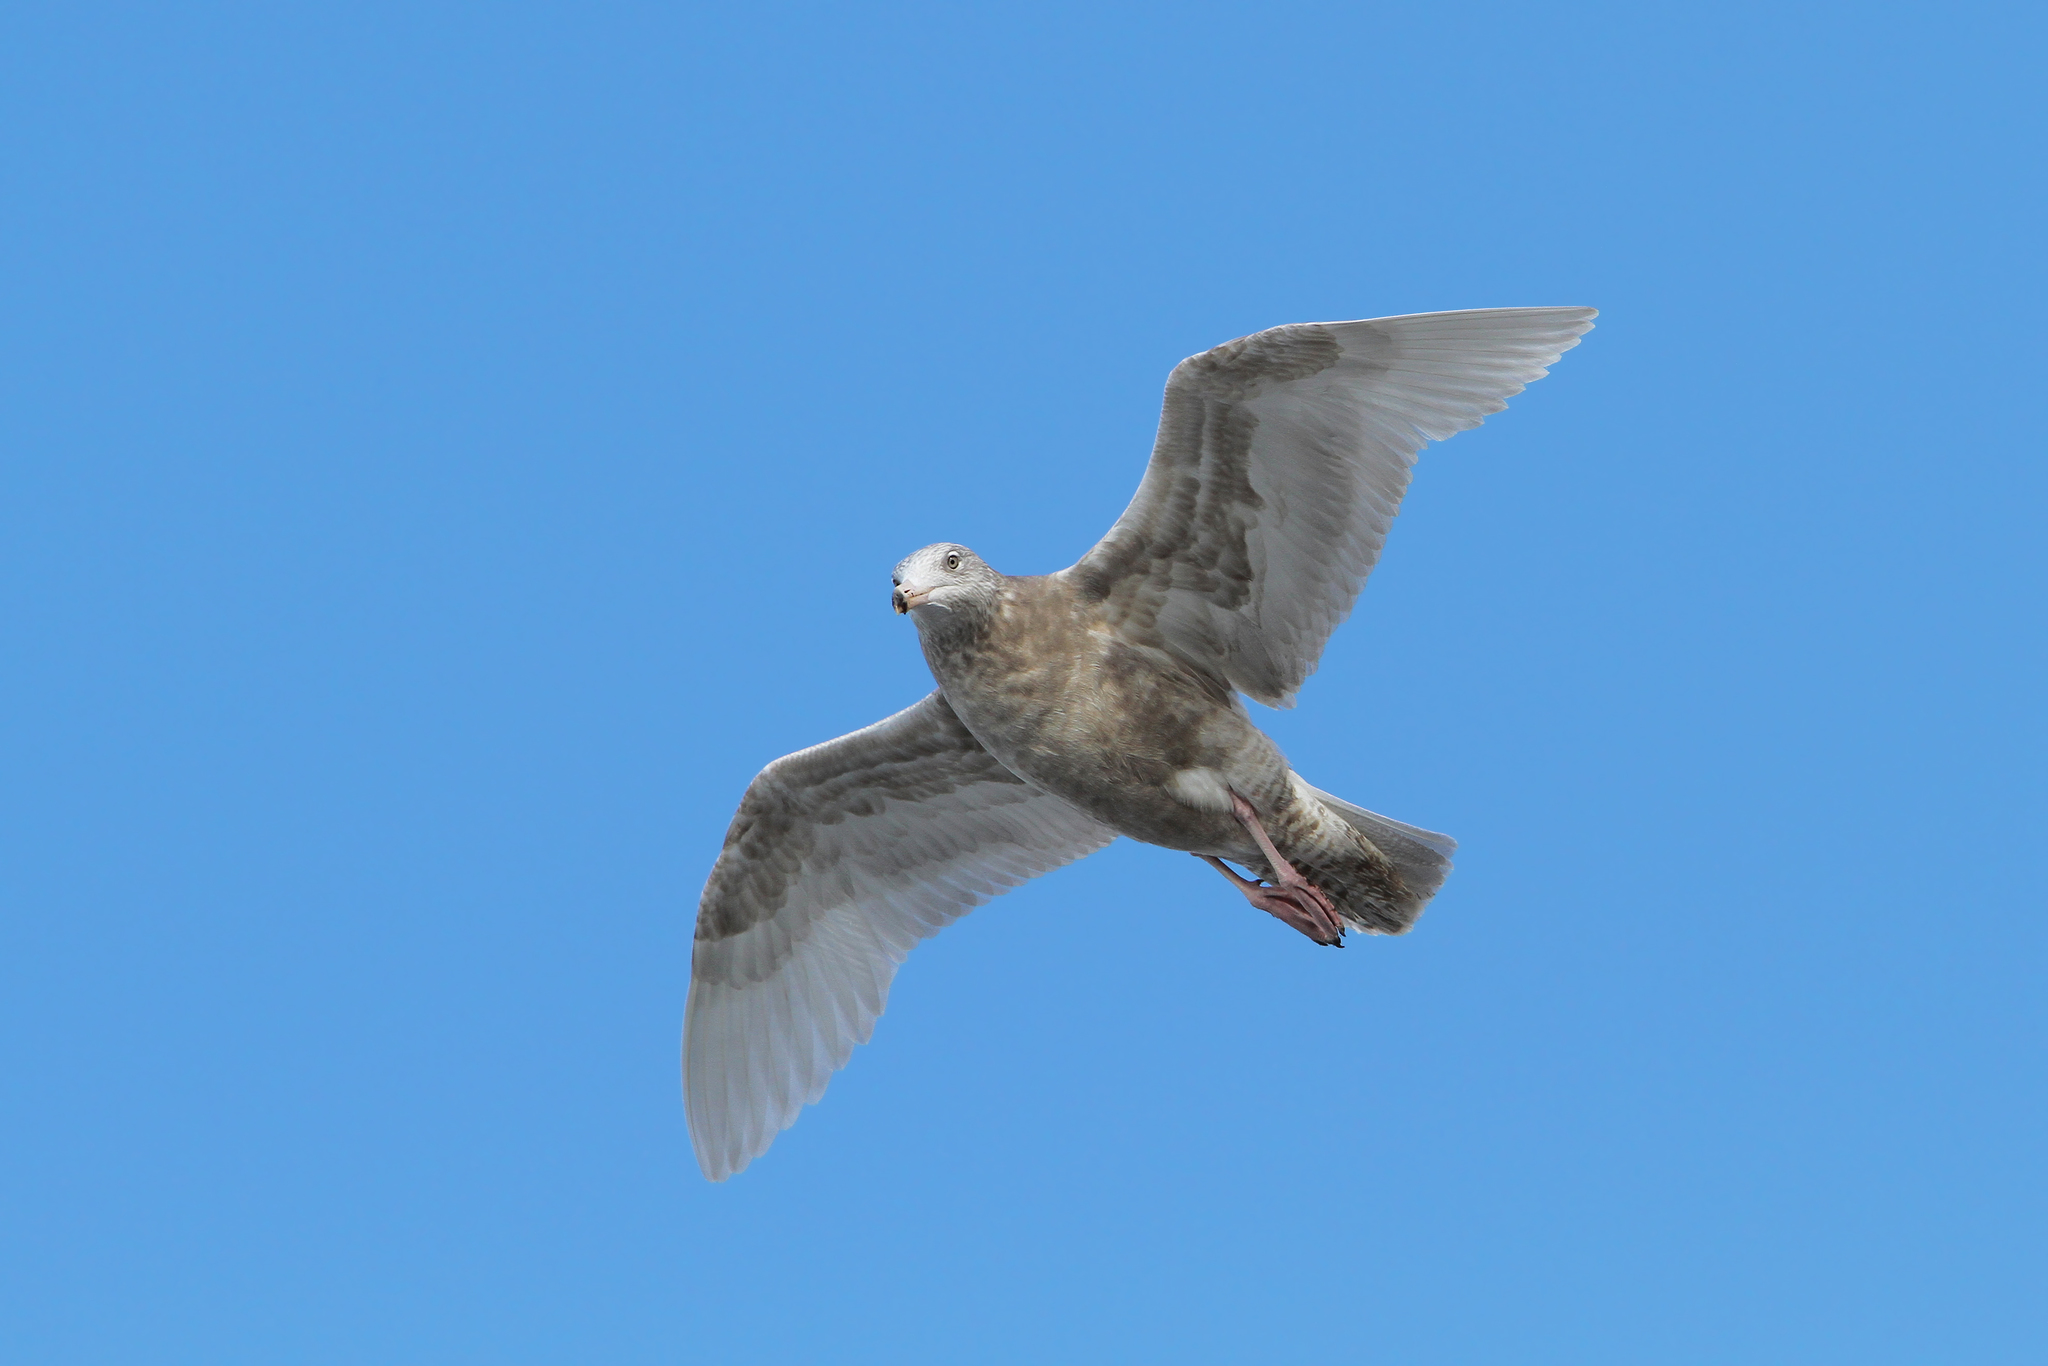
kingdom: Animalia
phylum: Chordata
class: Aves
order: Charadriiformes
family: Laridae
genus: Larus
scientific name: Larus hyperboreus
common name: Glaucous gull
